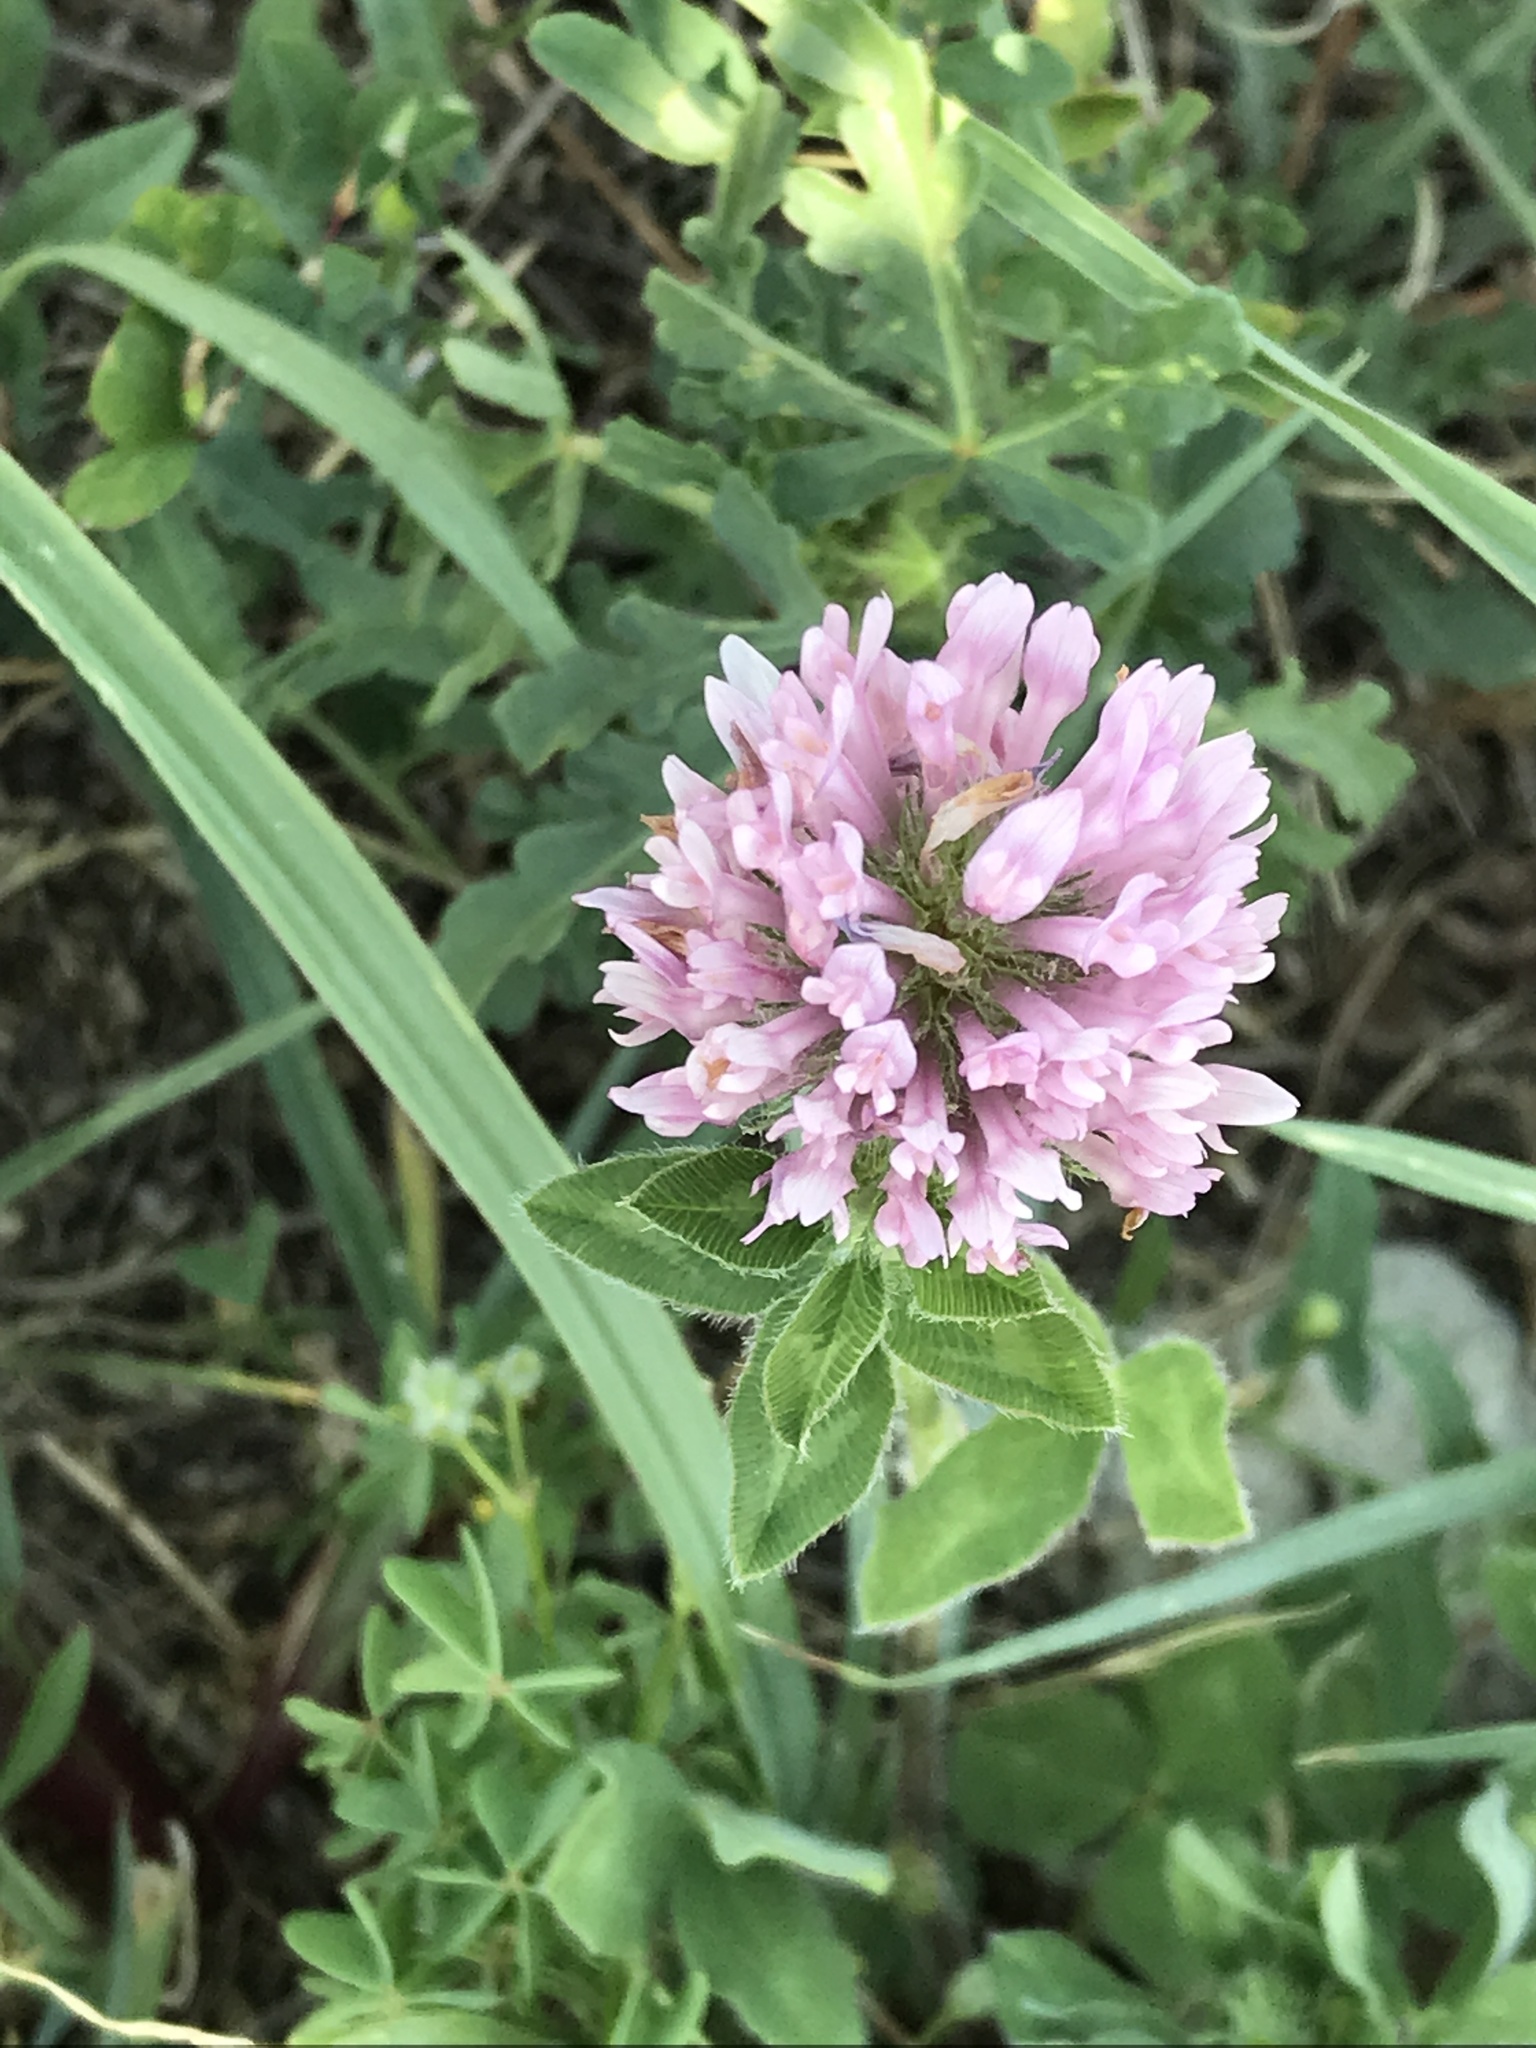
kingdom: Plantae
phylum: Tracheophyta
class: Magnoliopsida
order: Fabales
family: Fabaceae
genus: Trifolium
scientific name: Trifolium pratense
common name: Red clover
